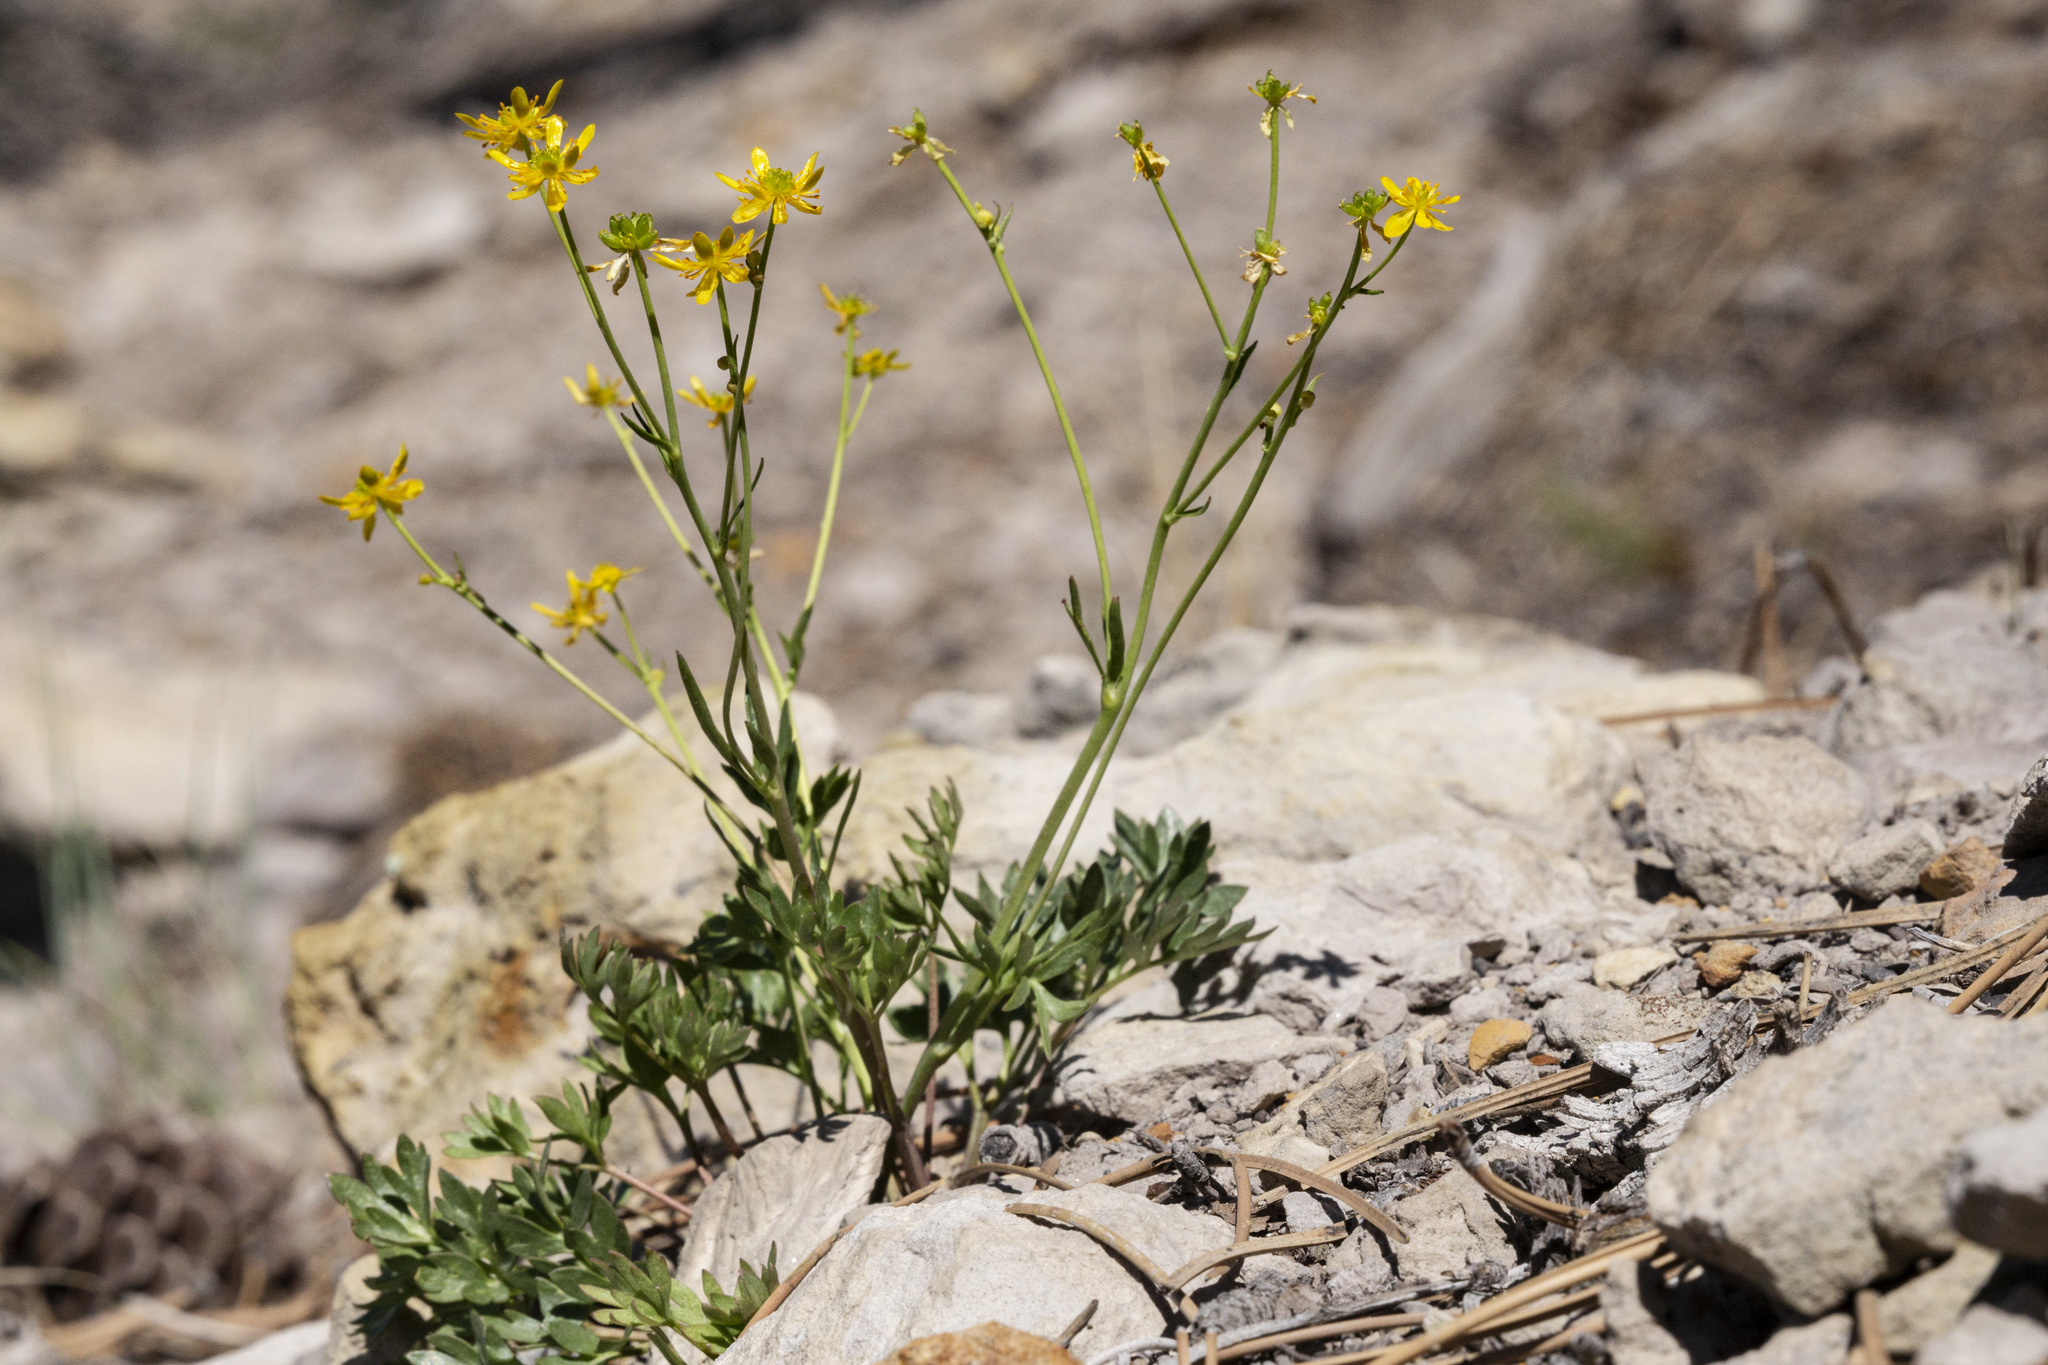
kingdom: Plantae
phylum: Tracheophyta
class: Magnoliopsida
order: Ranunculales
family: Ranunculaceae
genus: Cyrtorhyncha
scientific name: Cyrtorhyncha ranunculina
